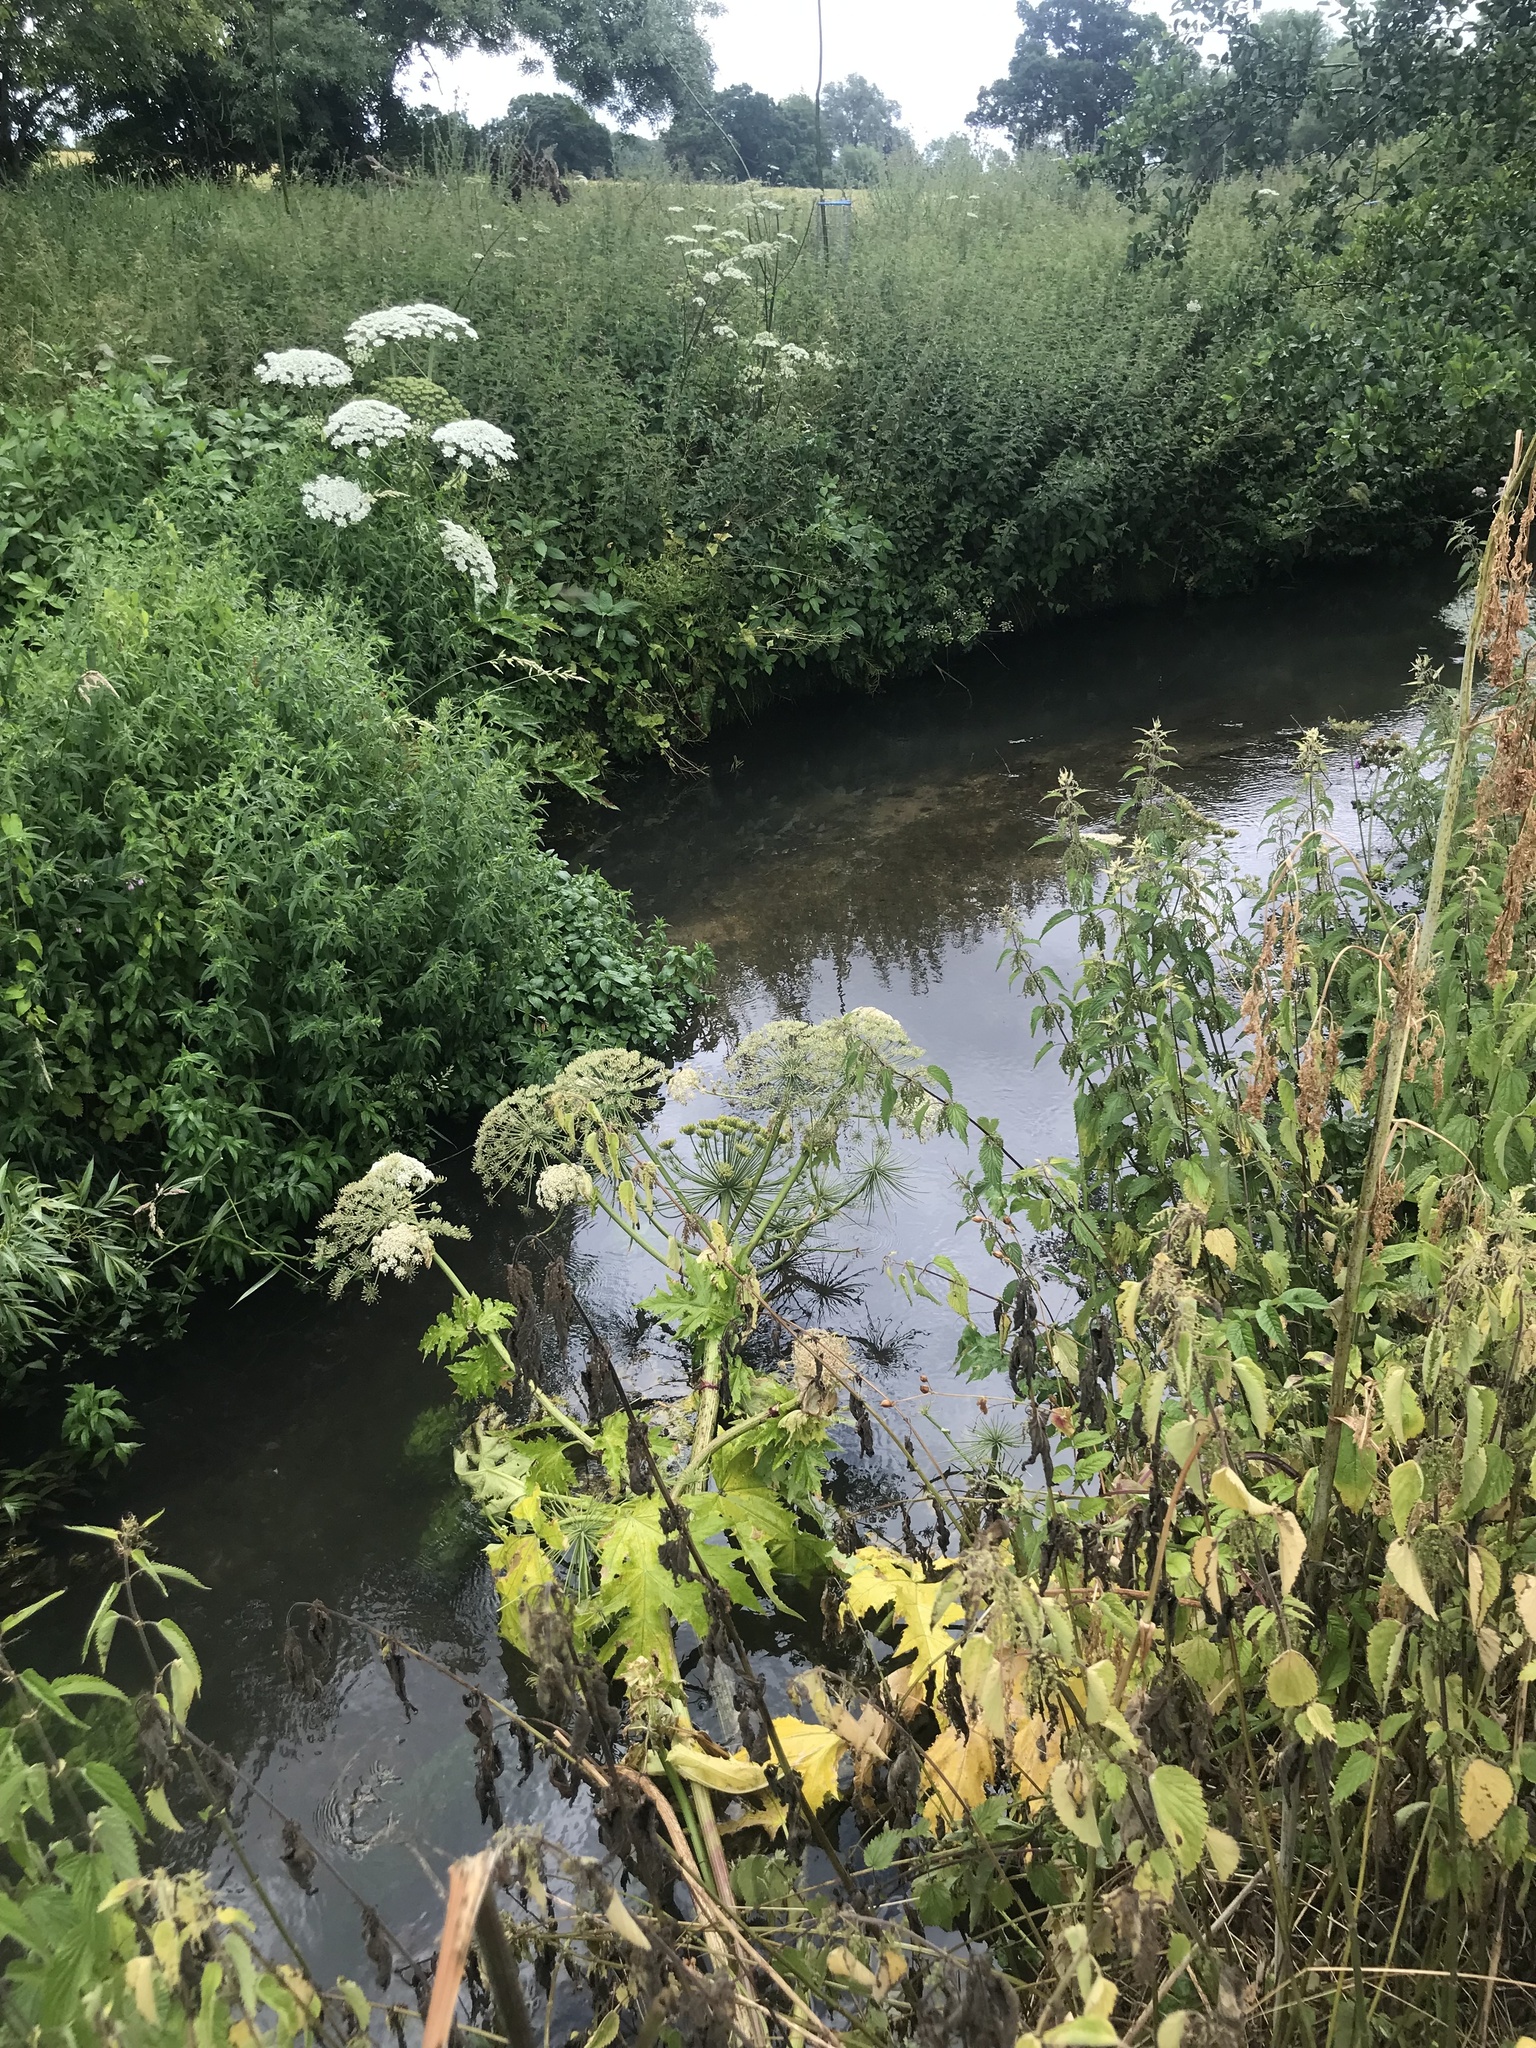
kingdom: Plantae
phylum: Tracheophyta
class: Magnoliopsida
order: Apiales
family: Apiaceae
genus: Heracleum
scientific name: Heracleum mantegazzianum
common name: Giant hogweed
